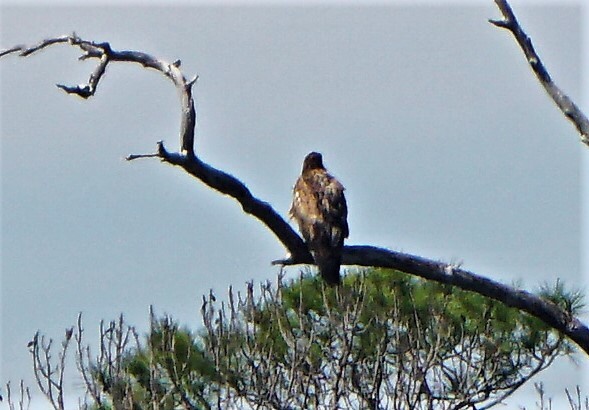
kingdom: Animalia
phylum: Chordata
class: Aves
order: Accipitriformes
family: Accipitridae
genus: Haliaeetus
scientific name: Haliaeetus leucocephalus
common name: Bald eagle
